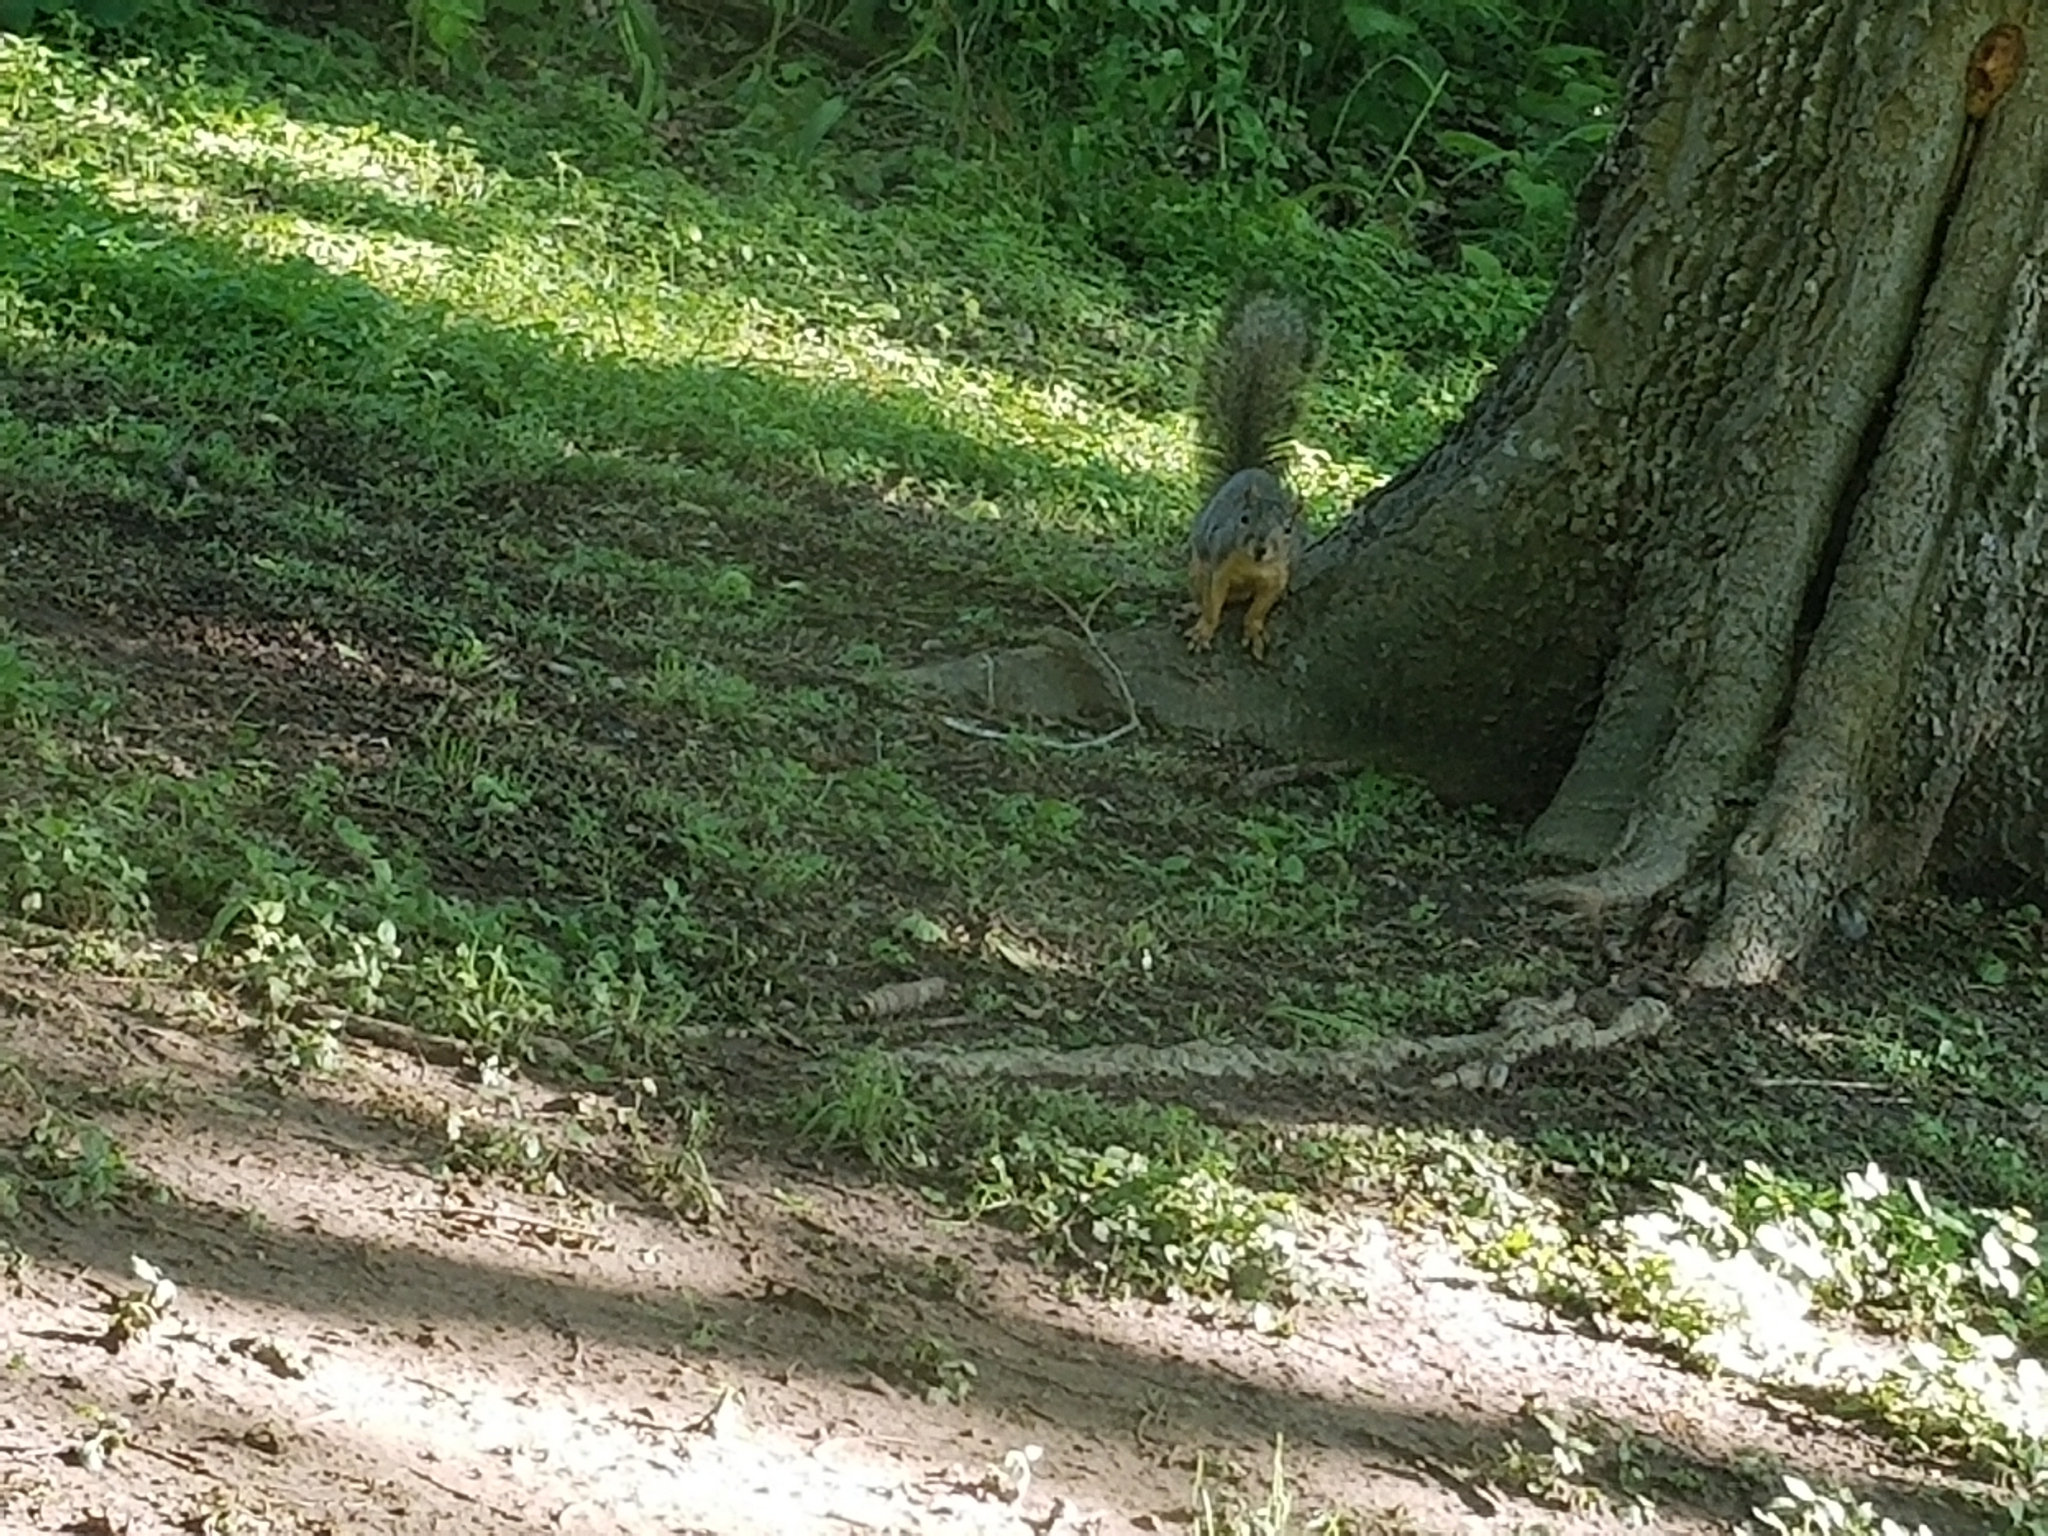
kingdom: Animalia
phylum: Chordata
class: Mammalia
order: Rodentia
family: Sciuridae
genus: Sciurus
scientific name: Sciurus niger
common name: Fox squirrel
